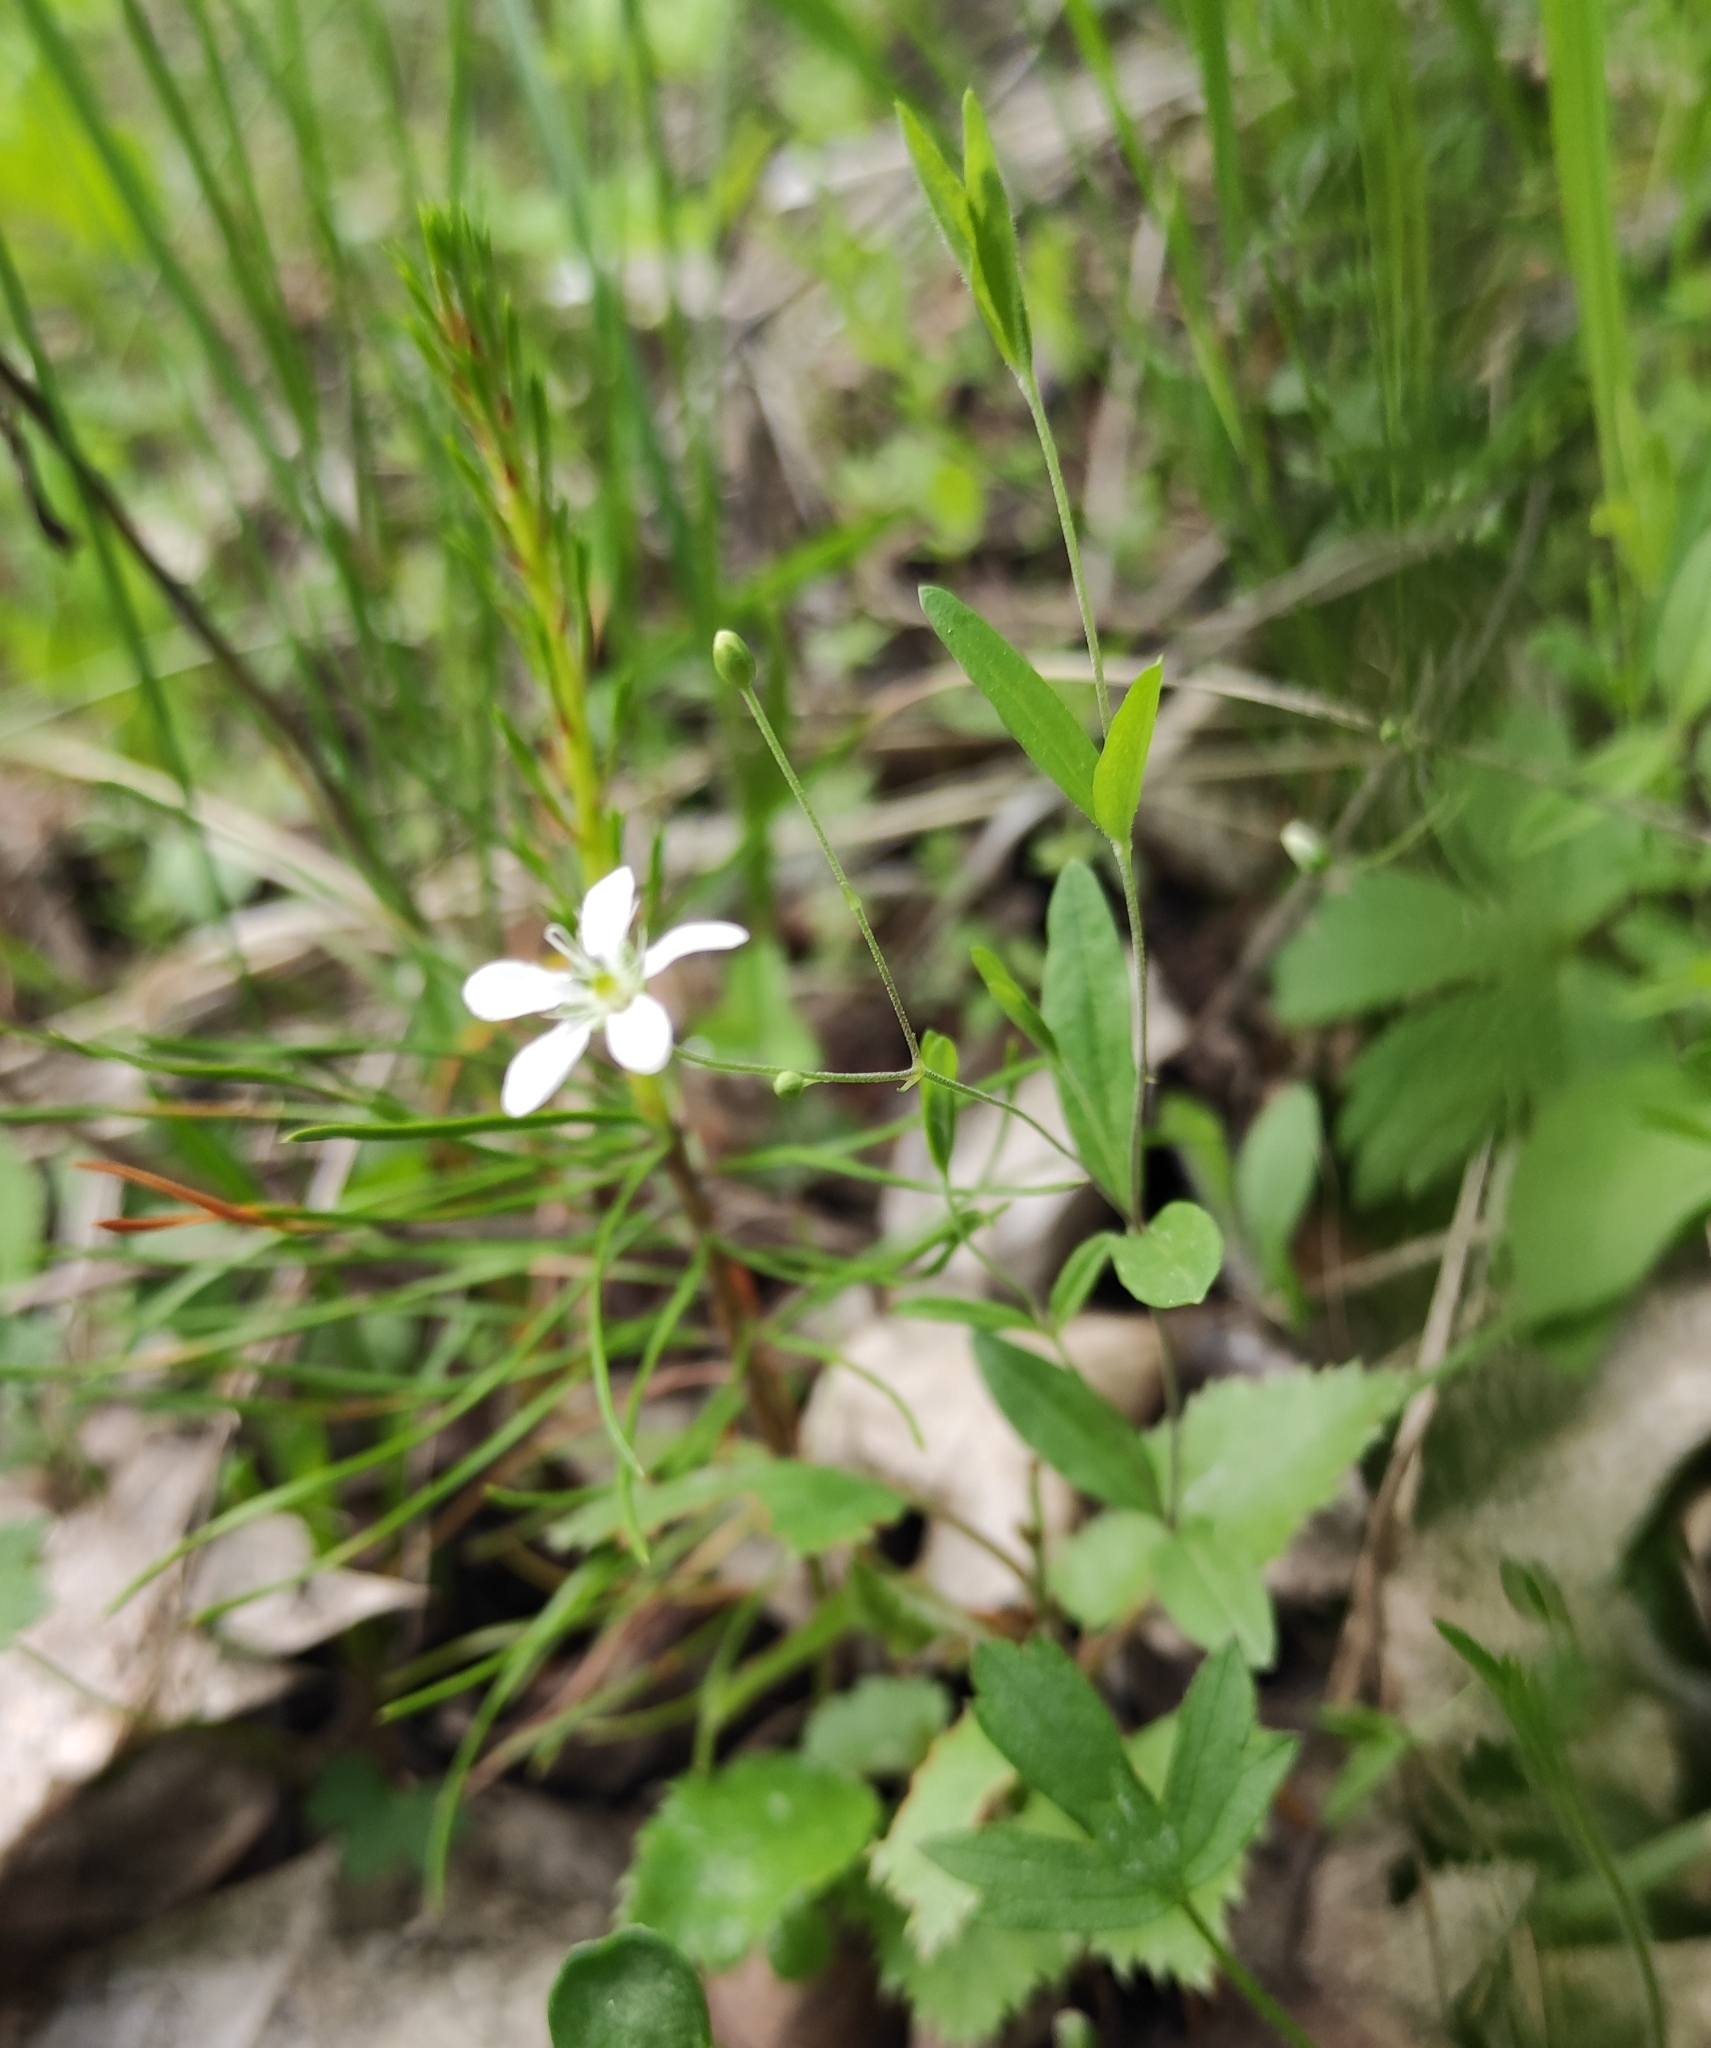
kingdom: Plantae
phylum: Tracheophyta
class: Magnoliopsida
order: Caryophyllales
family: Caryophyllaceae
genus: Moehringia
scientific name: Moehringia lateriflora
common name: Blunt-leaved sandwort
